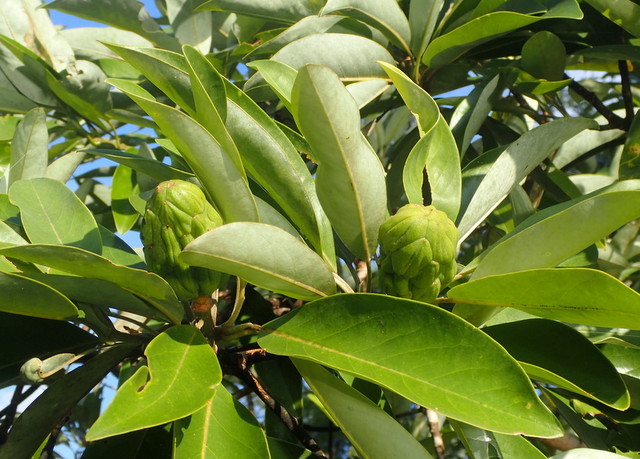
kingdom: Plantae
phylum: Tracheophyta
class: Magnoliopsida
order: Magnoliales
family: Magnoliaceae
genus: Magnolia
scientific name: Magnolia virginiana
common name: Swamp bay
